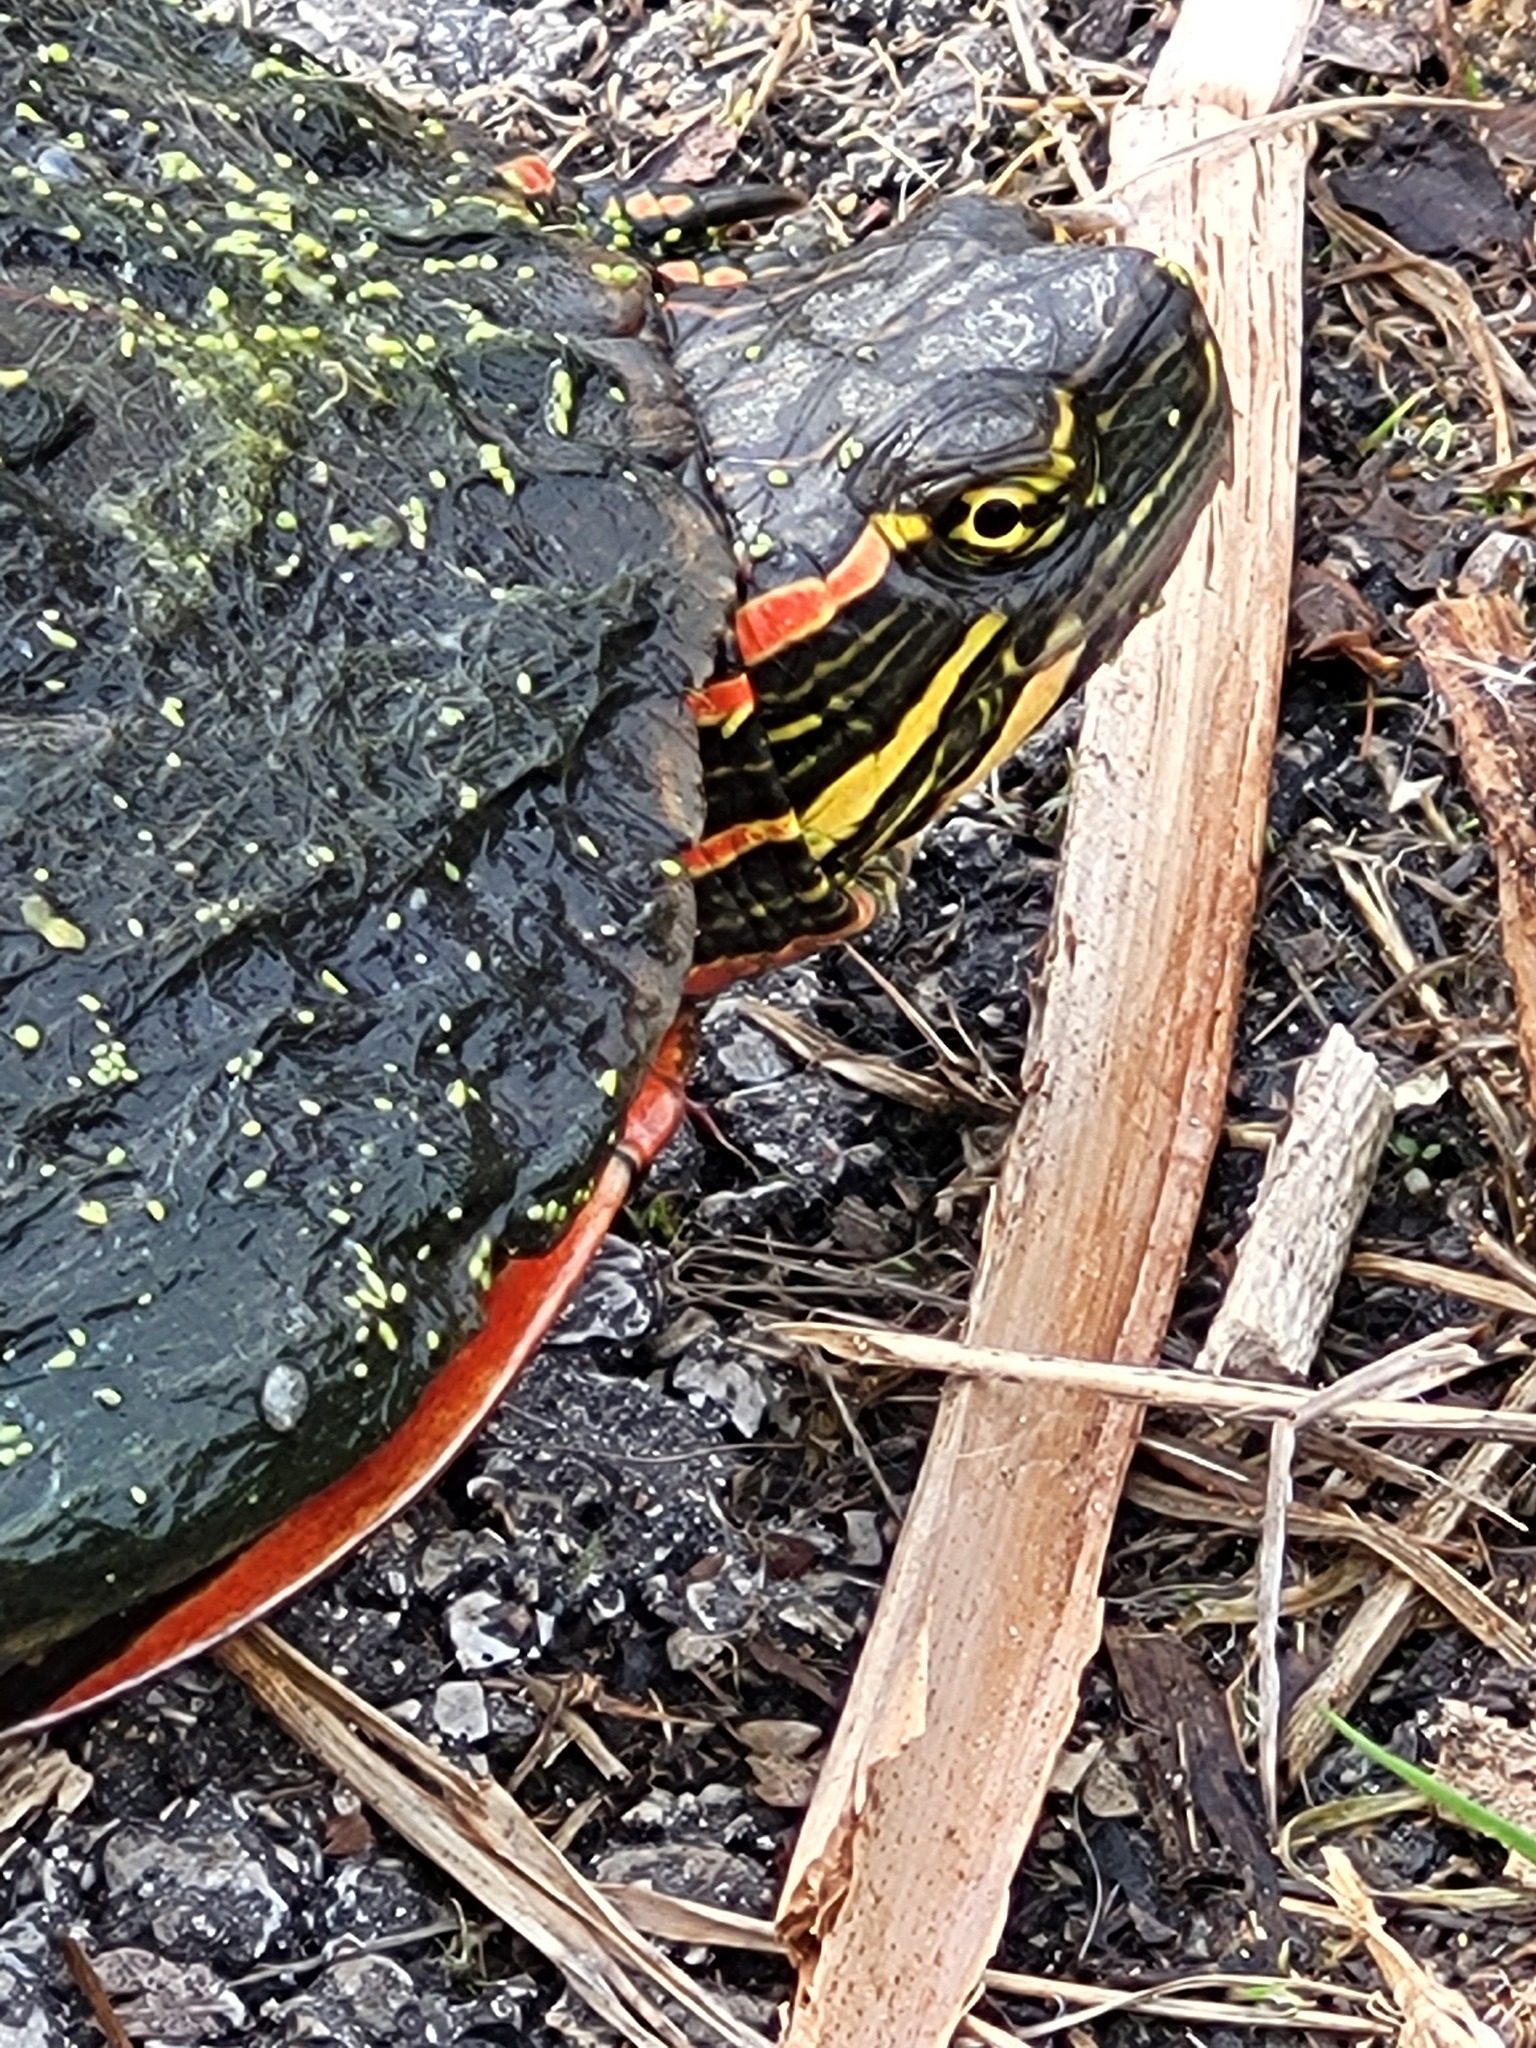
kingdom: Animalia
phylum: Chordata
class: Testudines
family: Emydidae
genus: Chrysemys
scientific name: Chrysemys picta
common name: Painted turtle
